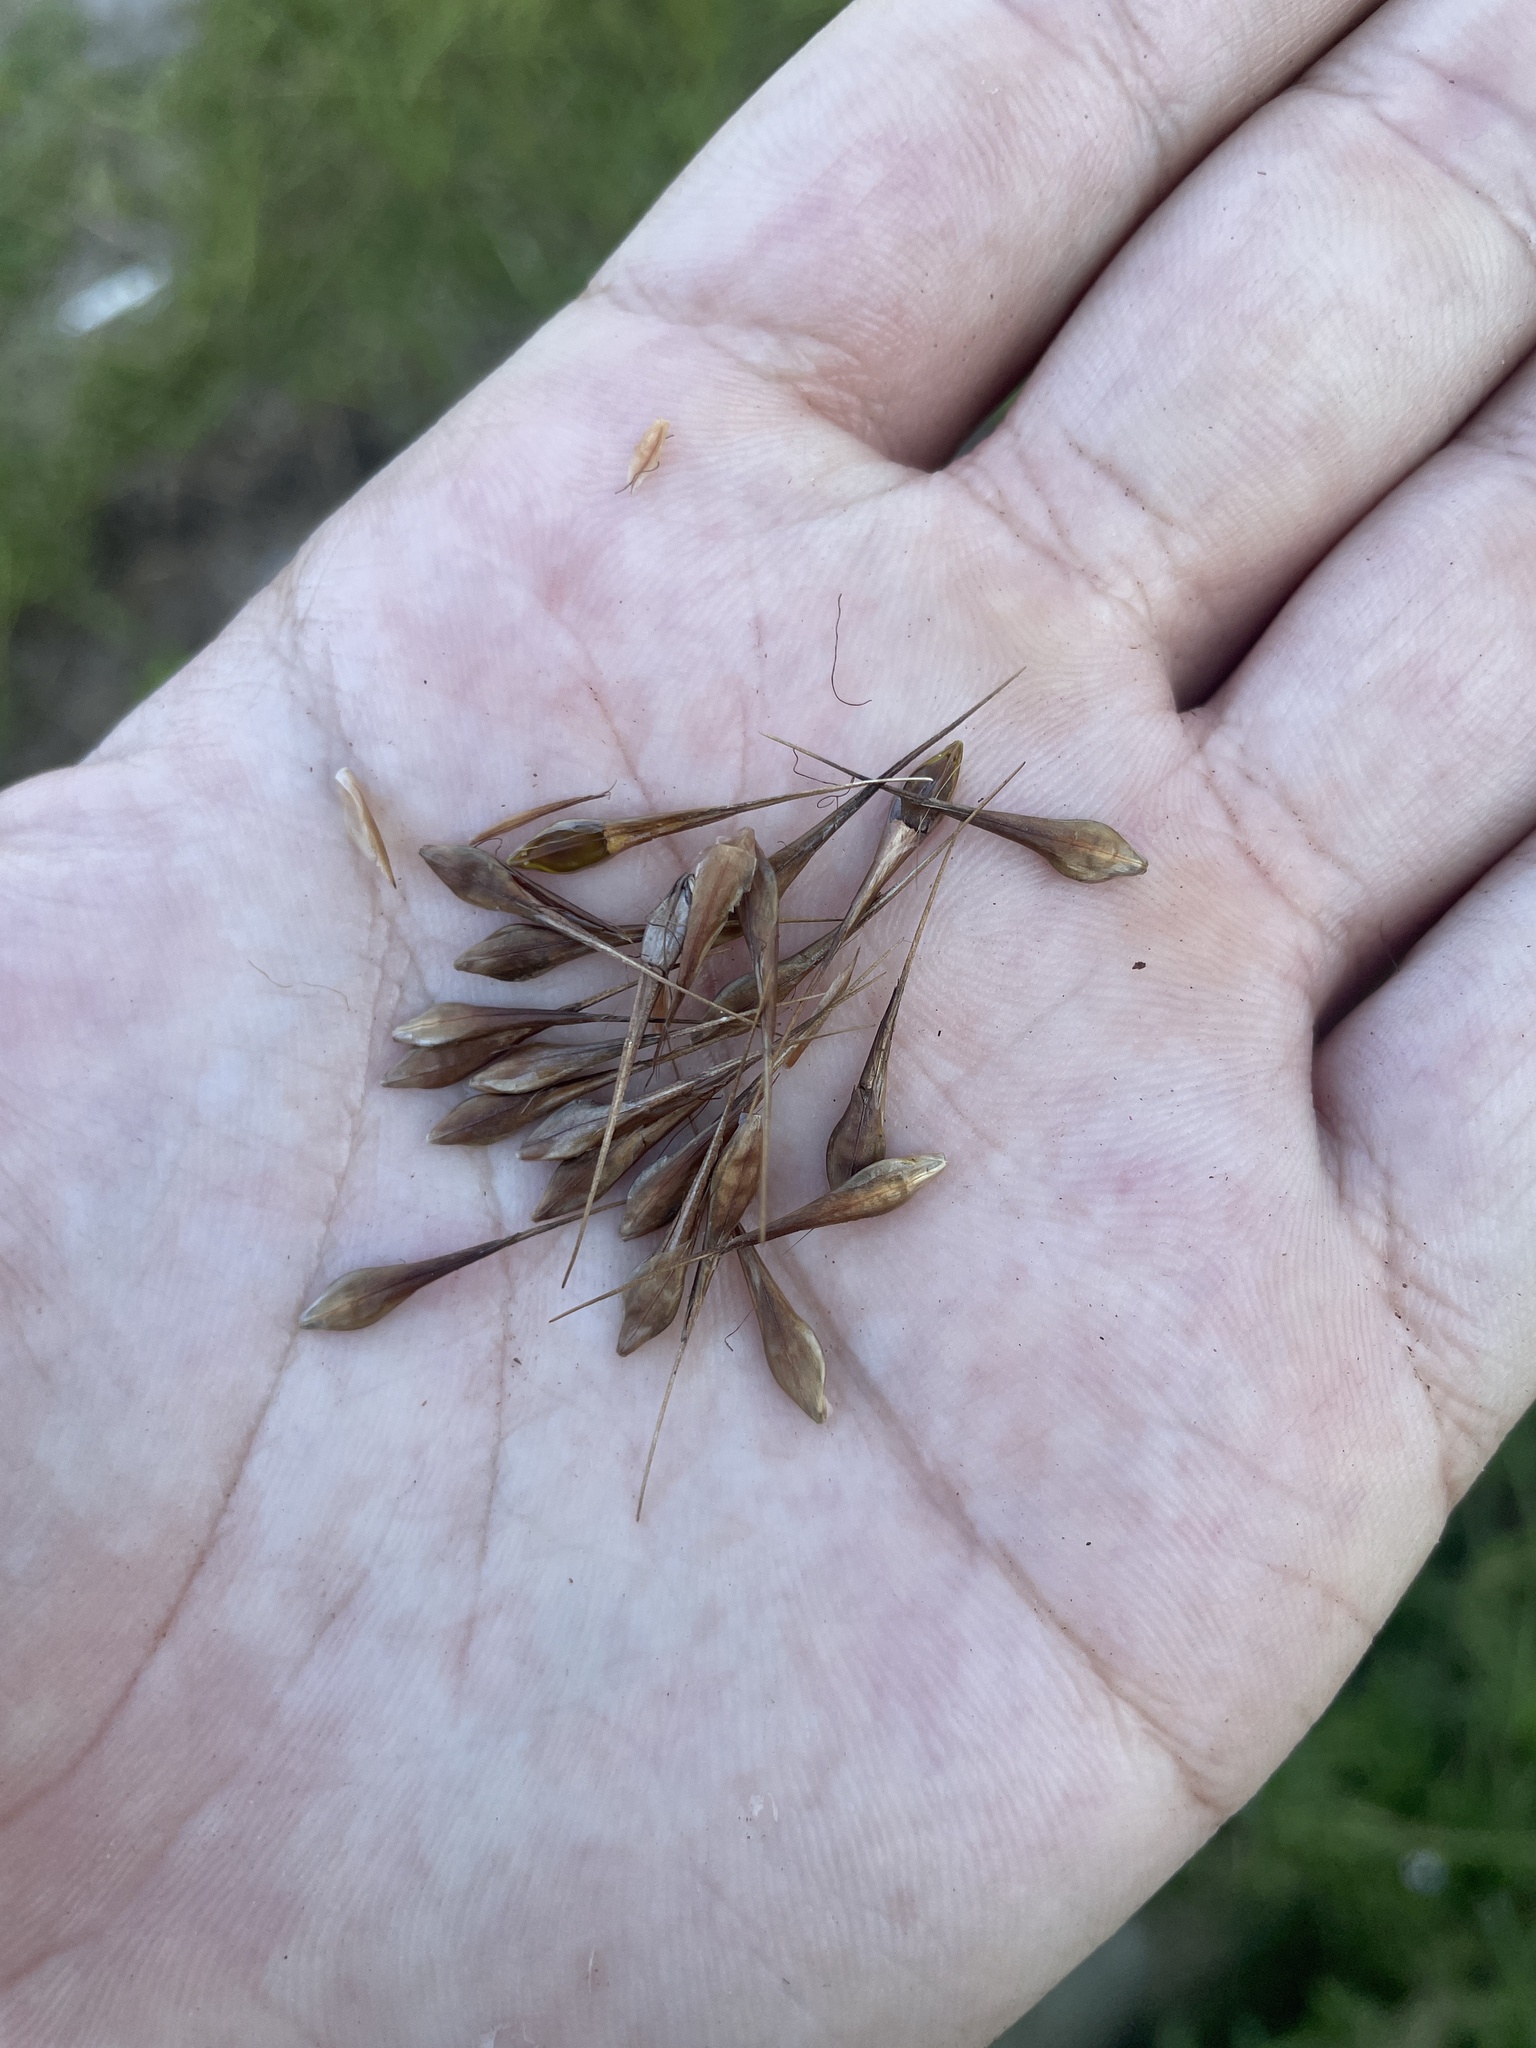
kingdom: Plantae
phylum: Tracheophyta
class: Liliopsida
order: Poales
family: Cyperaceae
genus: Rhynchospora
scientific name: Rhynchospora macrostachya
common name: Tall beakrush
